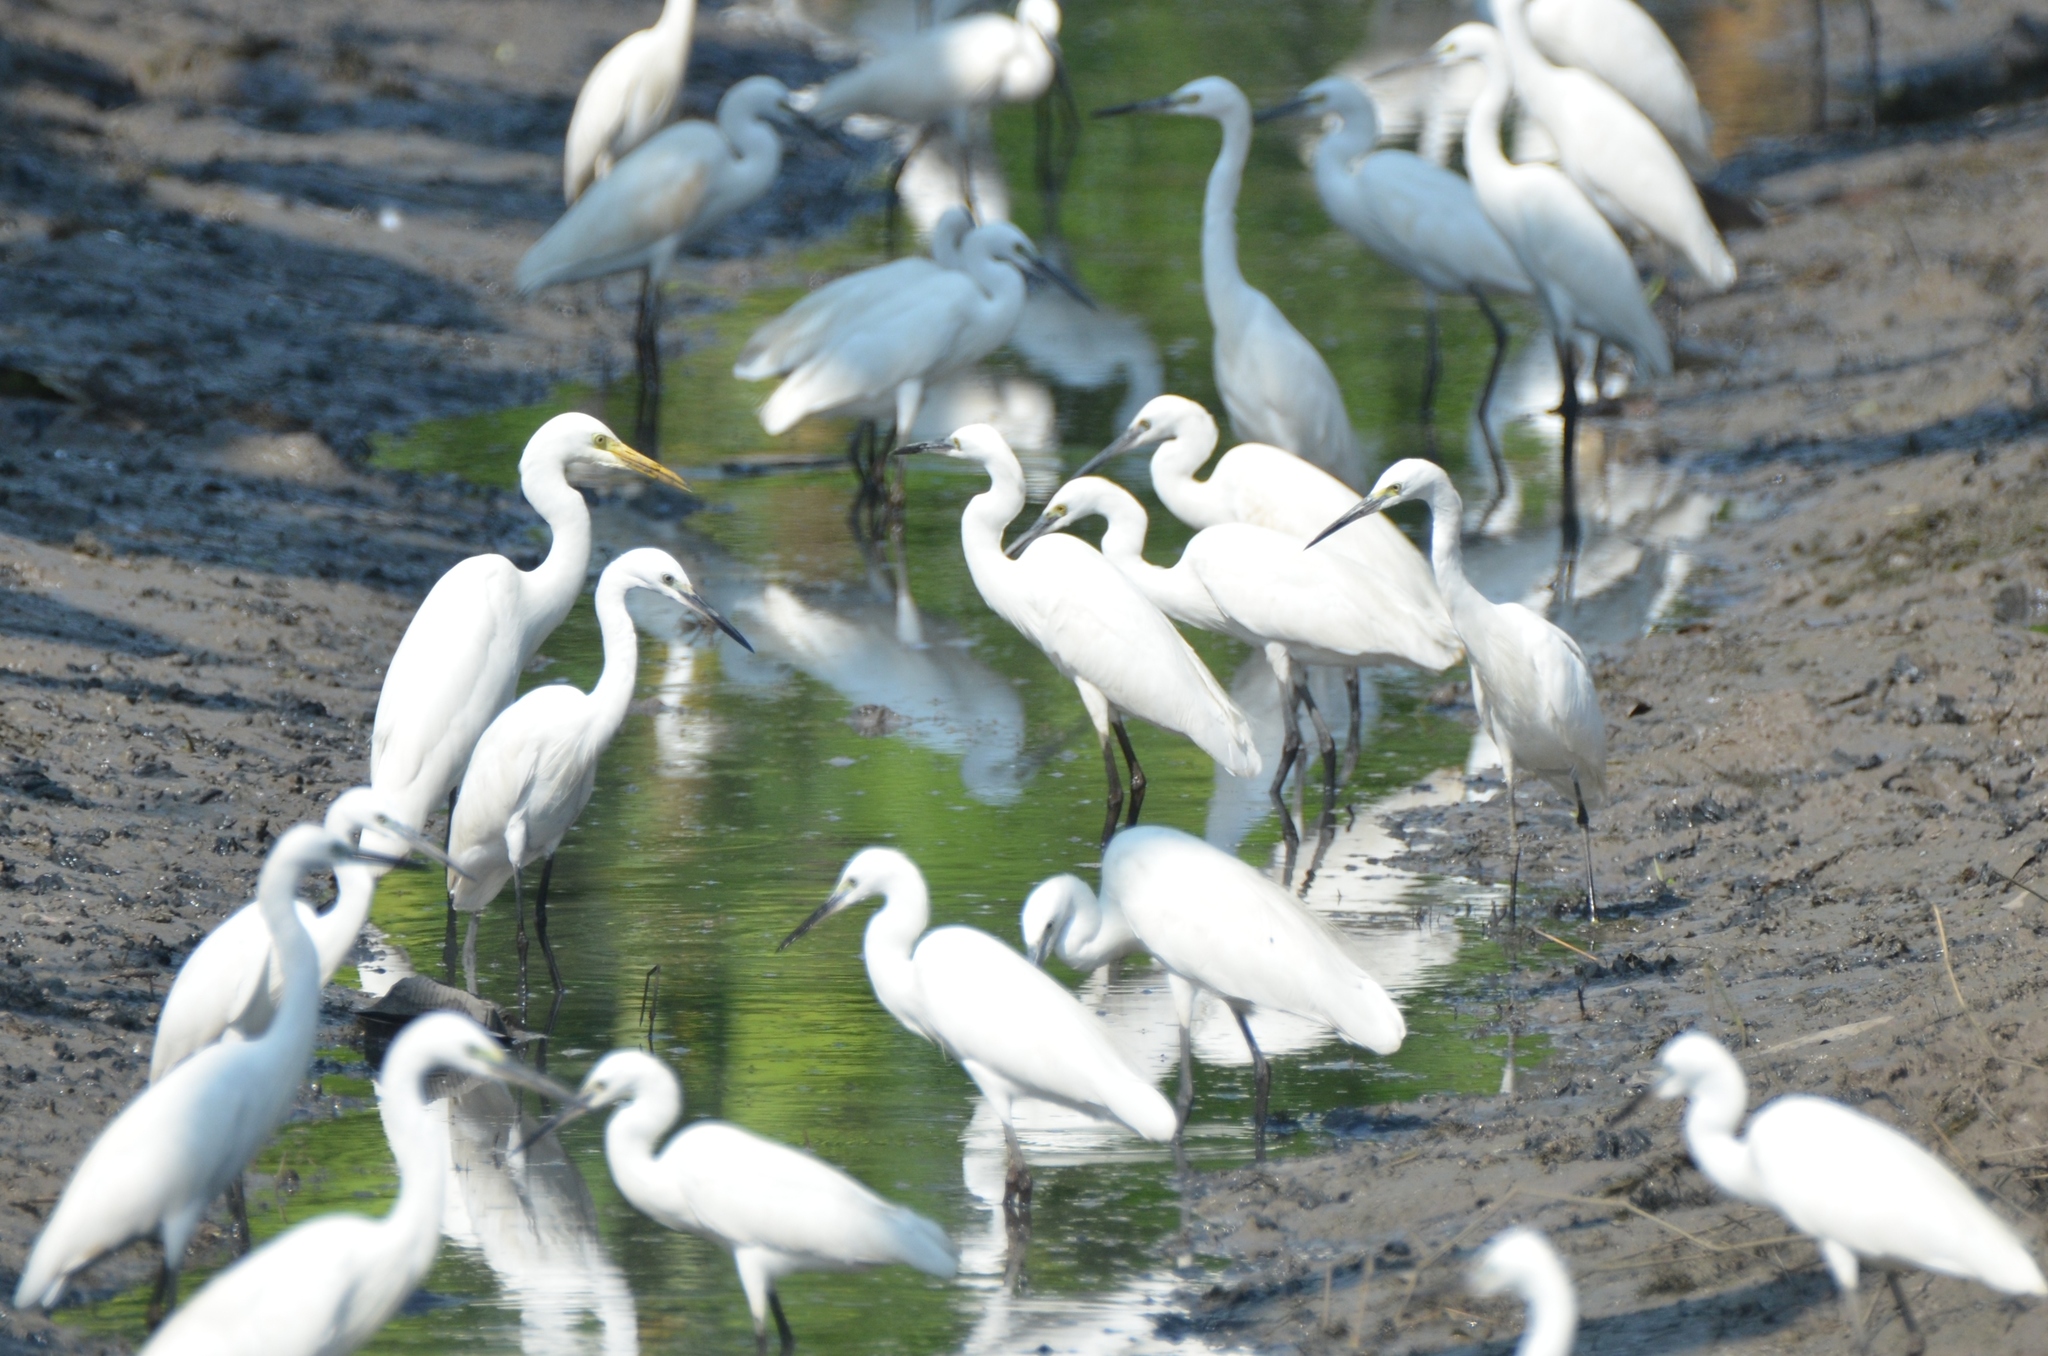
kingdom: Animalia
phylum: Chordata
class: Aves
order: Pelecaniformes
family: Ardeidae
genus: Egretta
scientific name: Egretta garzetta
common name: Little egret
